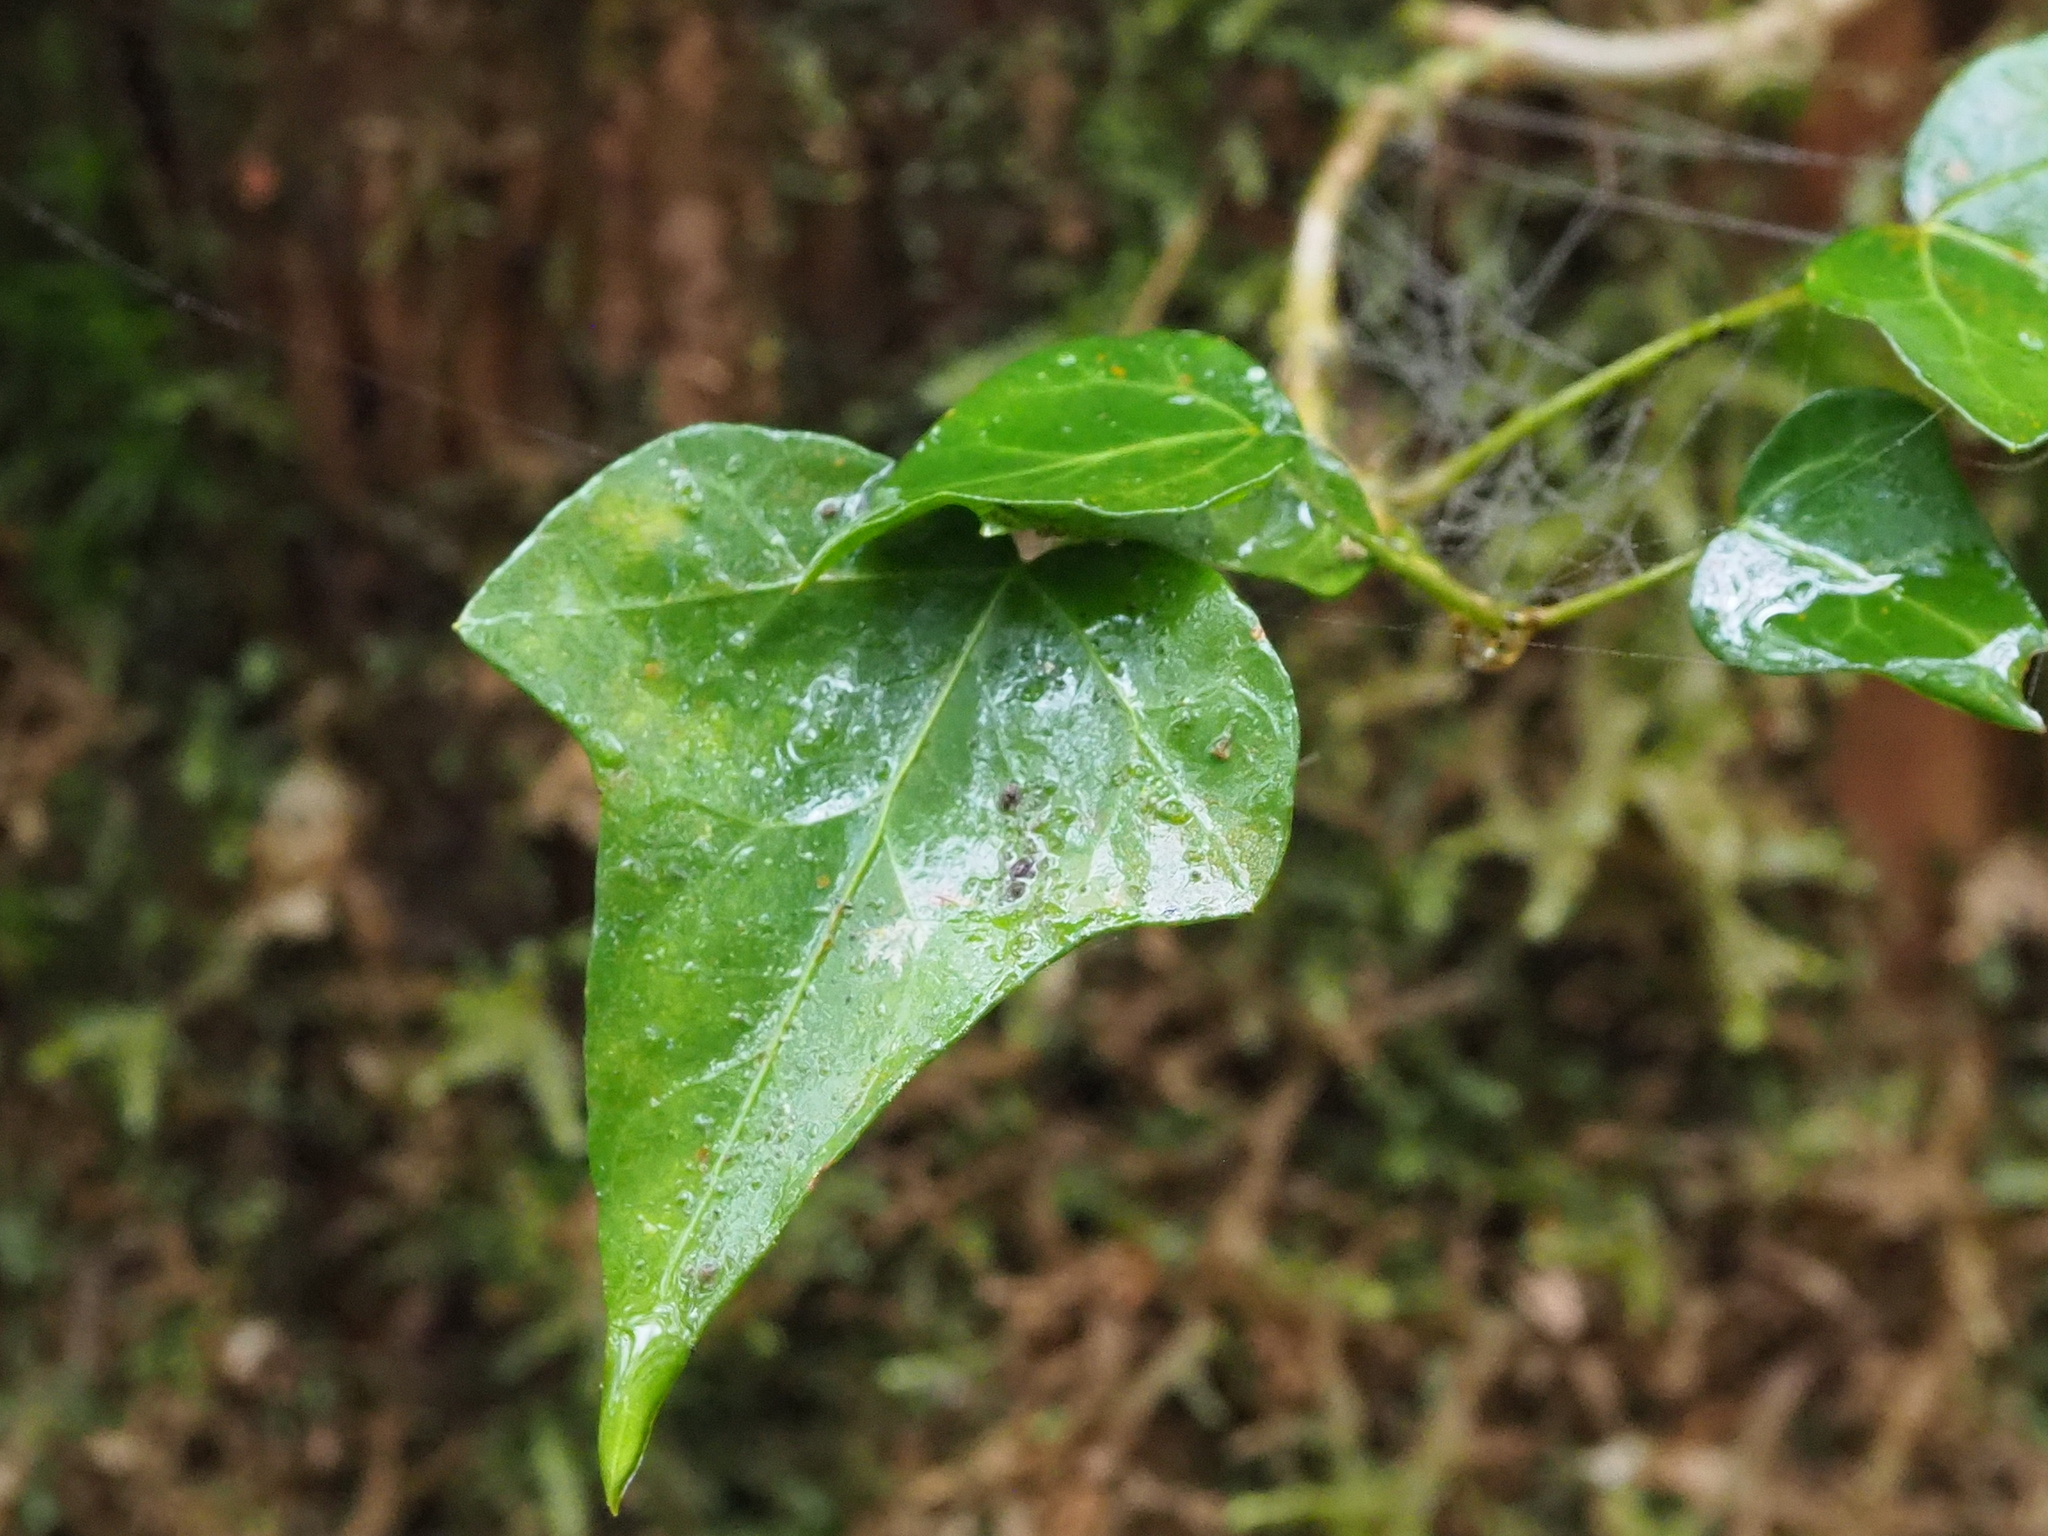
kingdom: Plantae
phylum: Tracheophyta
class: Magnoliopsida
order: Apiales
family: Araliaceae
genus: Hedera
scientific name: Hedera rhombea
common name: Japanese ivy
